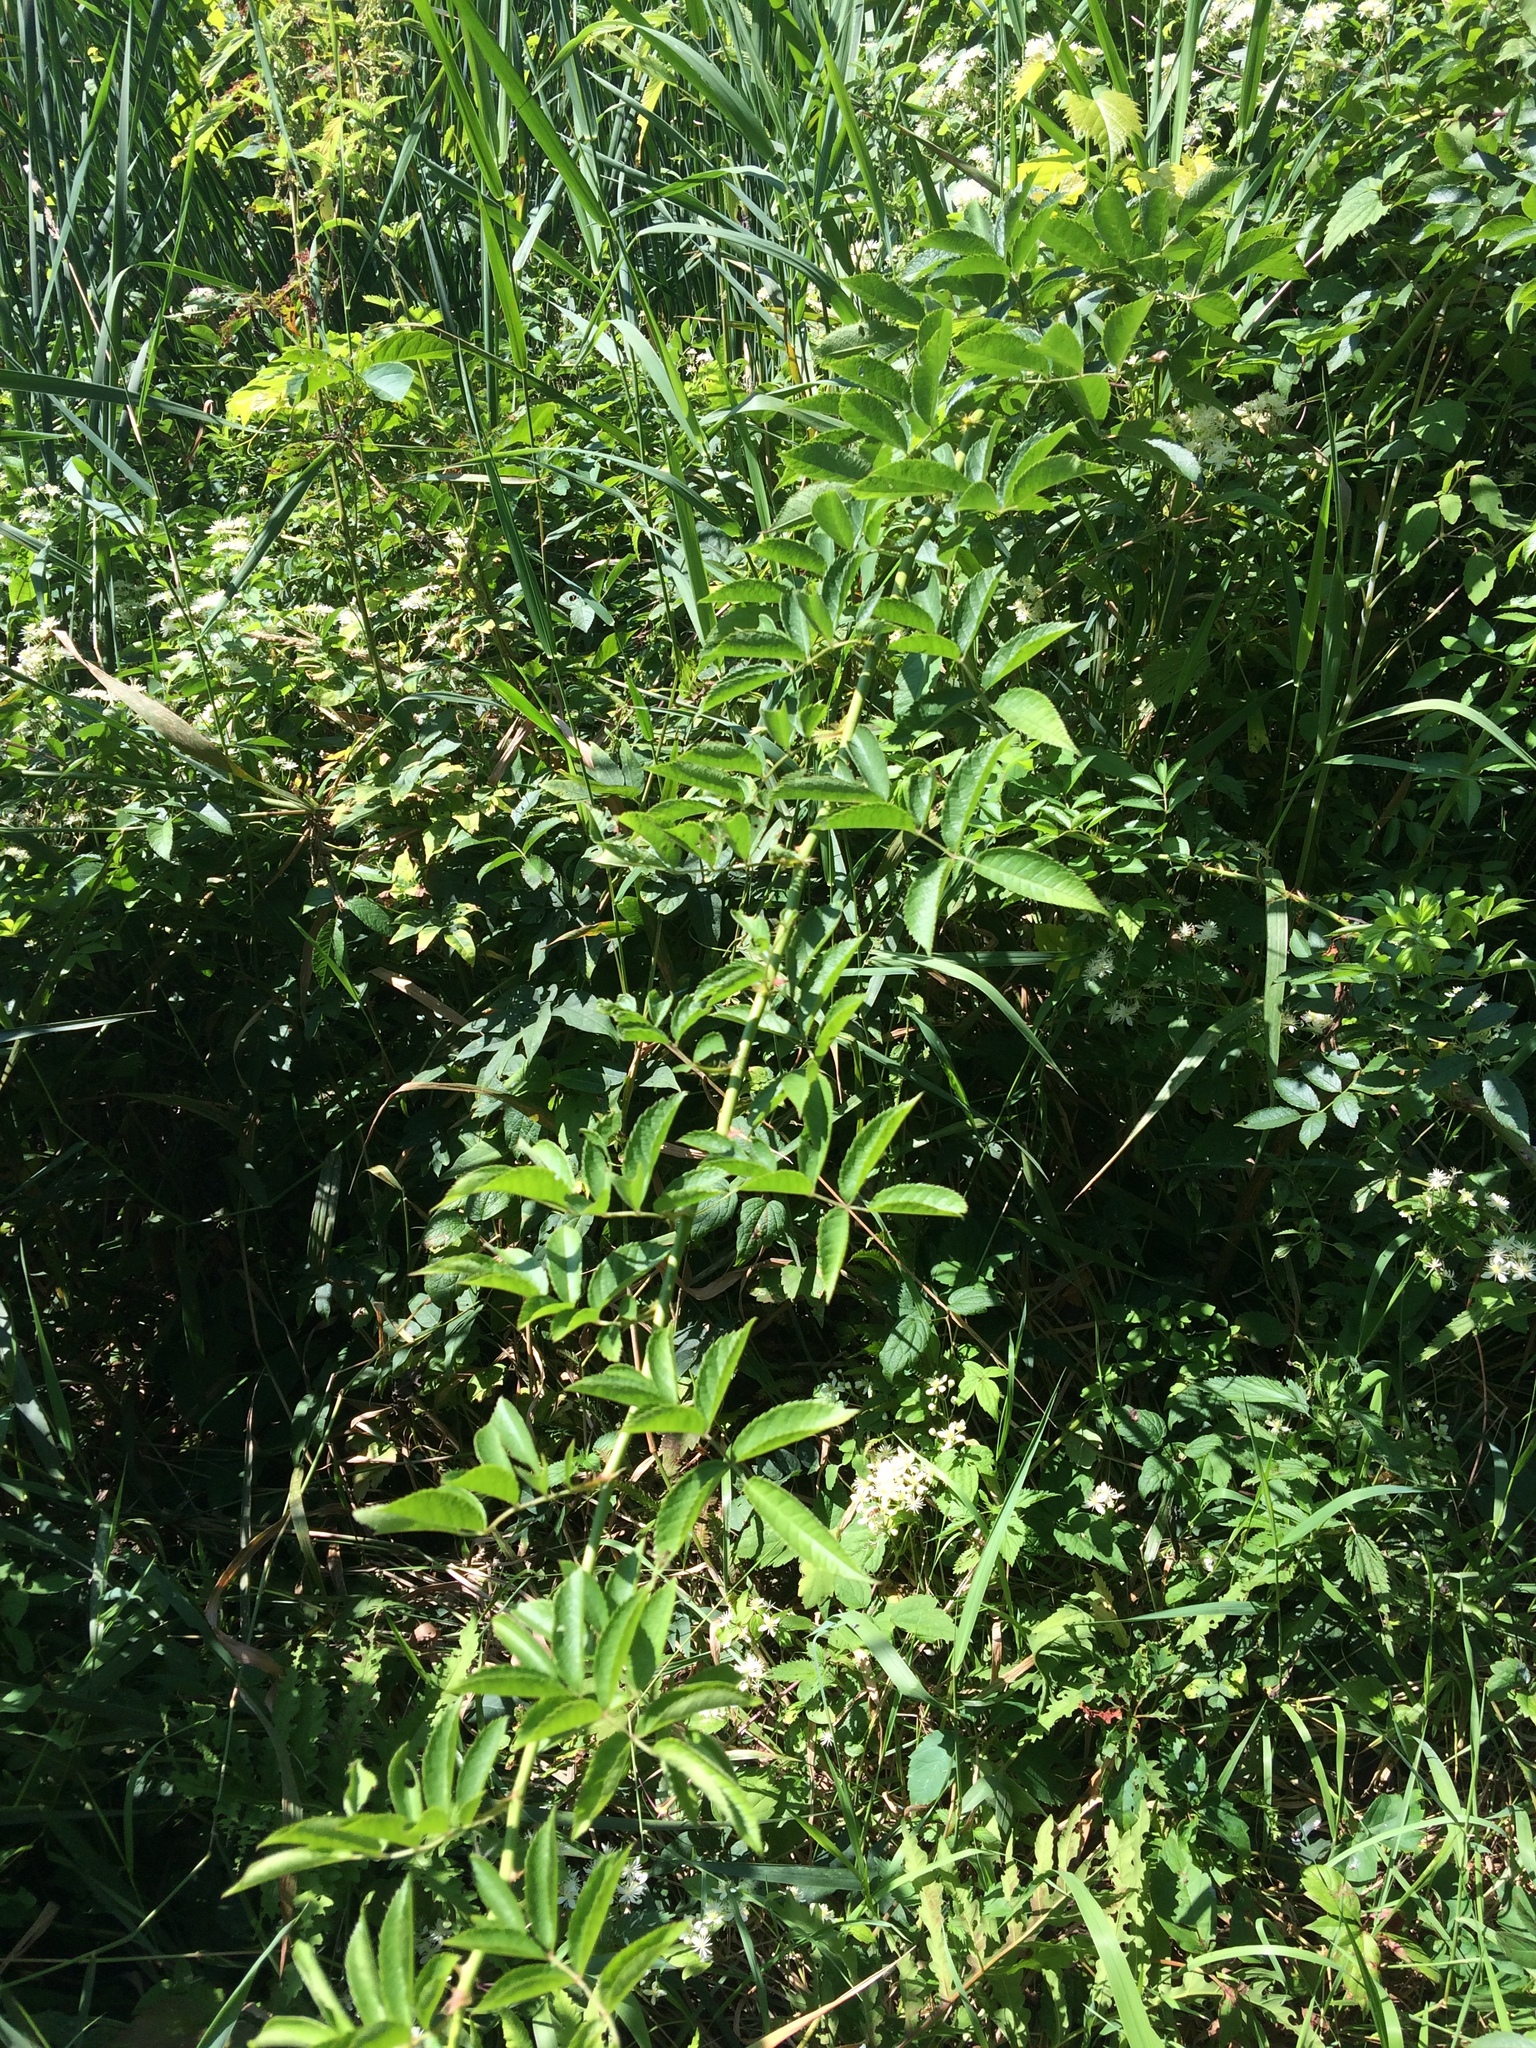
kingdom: Plantae
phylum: Tracheophyta
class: Magnoliopsida
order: Rosales
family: Rosaceae
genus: Rosa
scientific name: Rosa multiflora
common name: Multiflora rose
